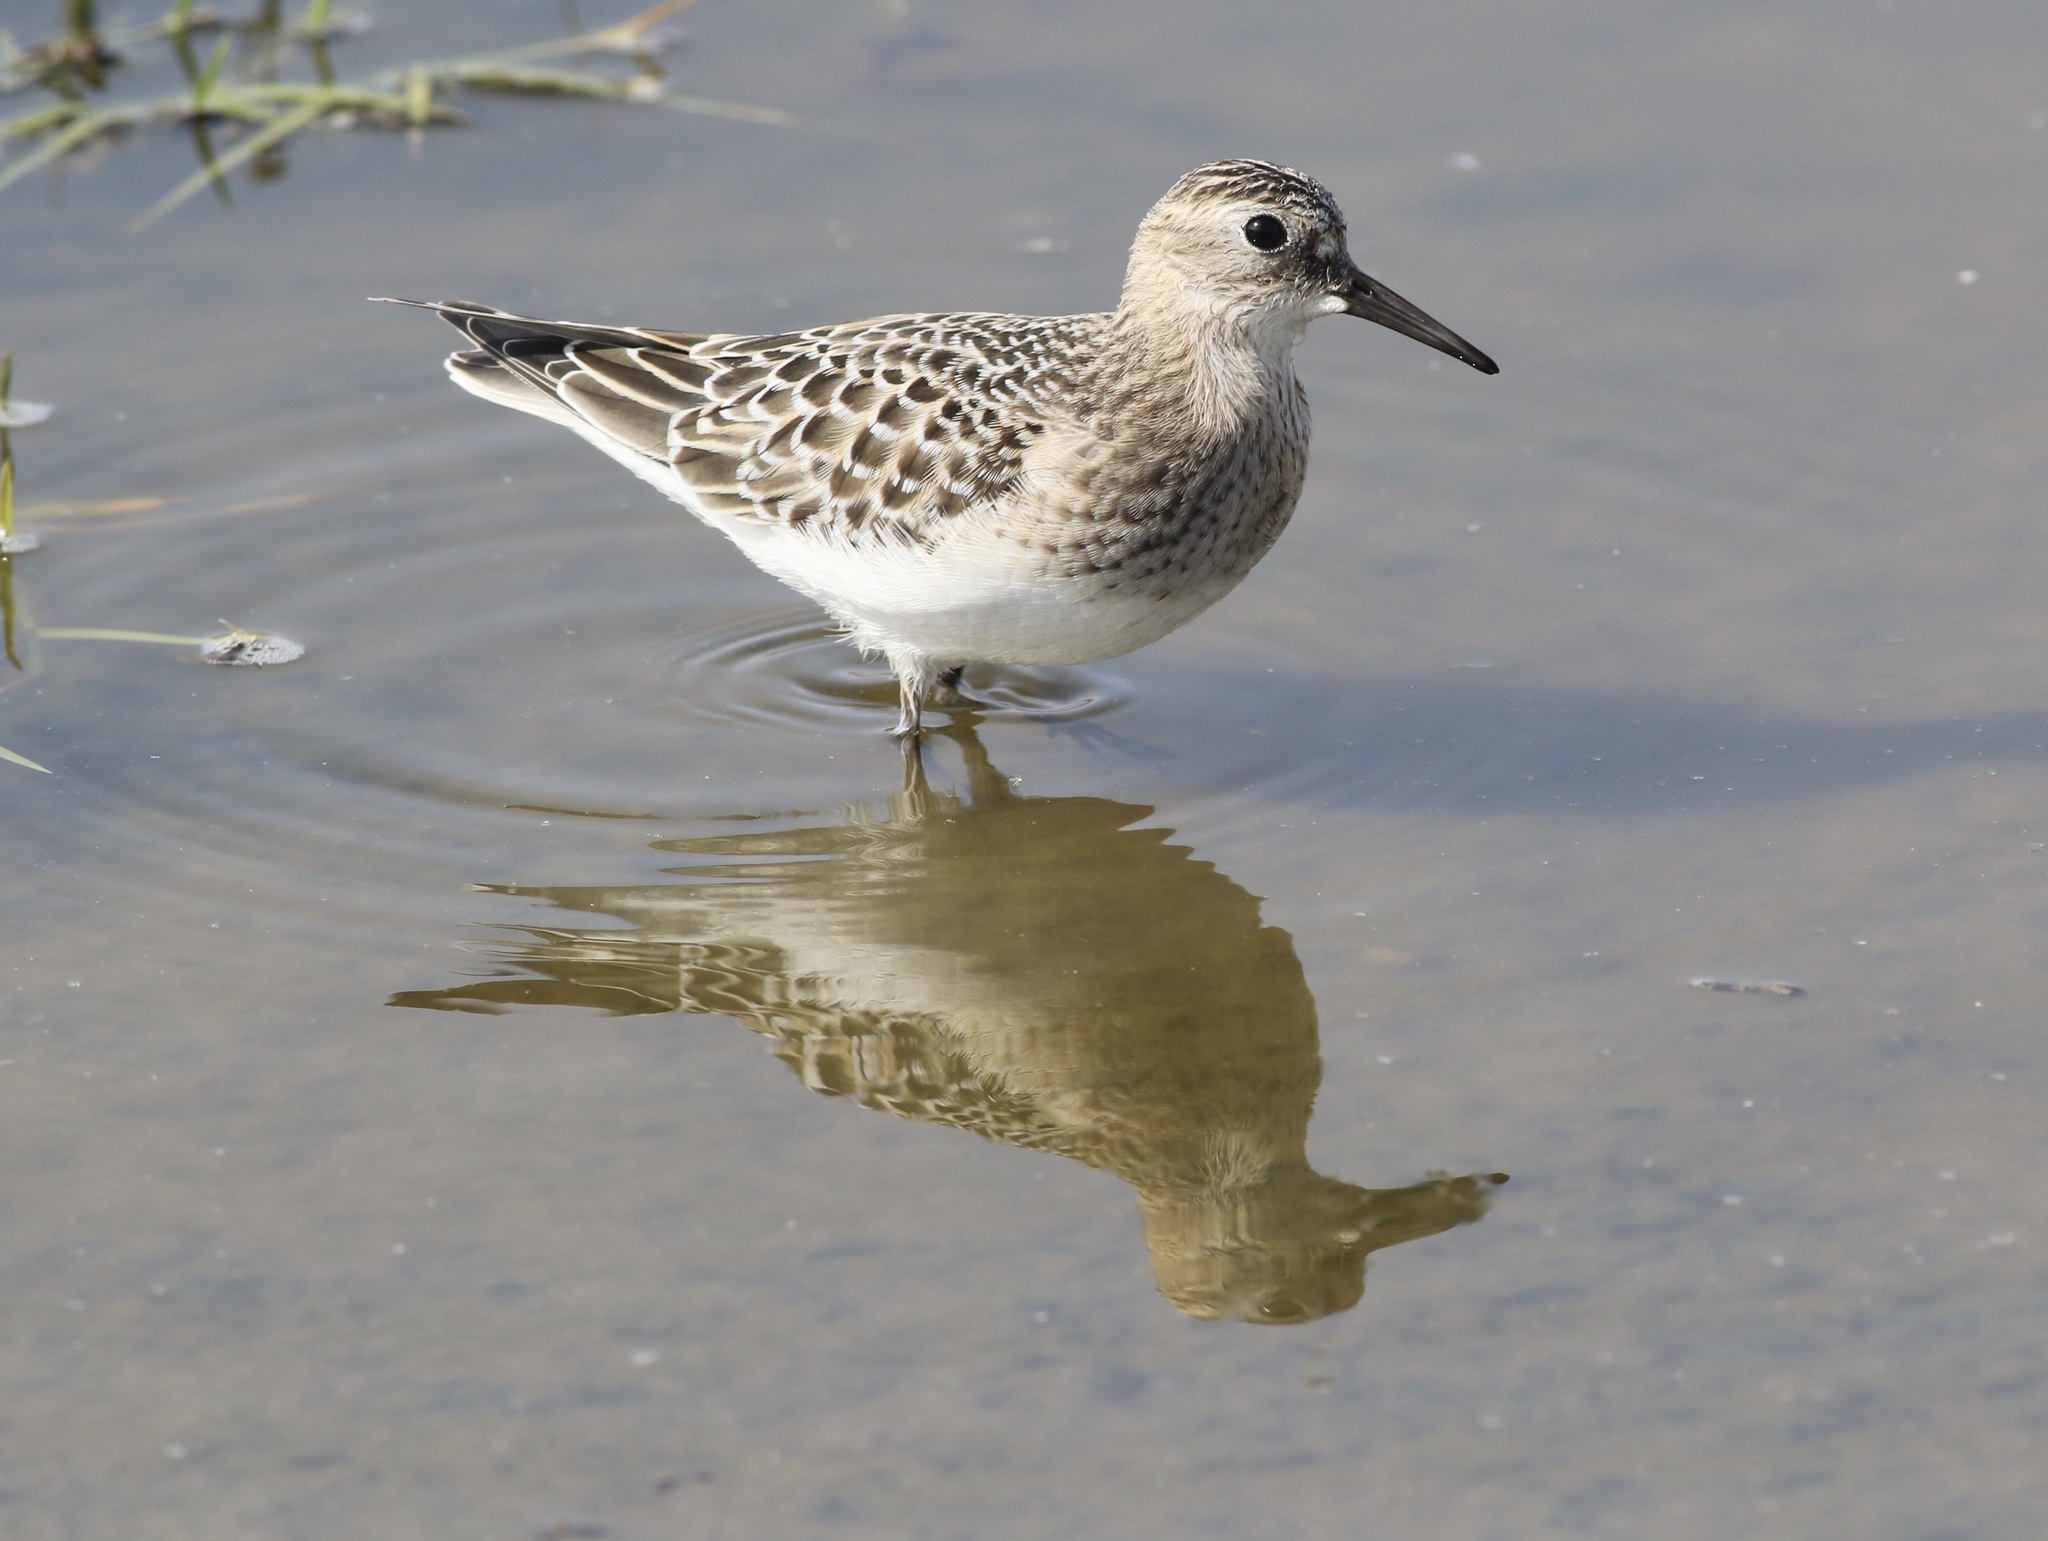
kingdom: Animalia
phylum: Chordata
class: Aves
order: Charadriiformes
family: Scolopacidae
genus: Calidris
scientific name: Calidris bairdii
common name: Baird's sandpiper
